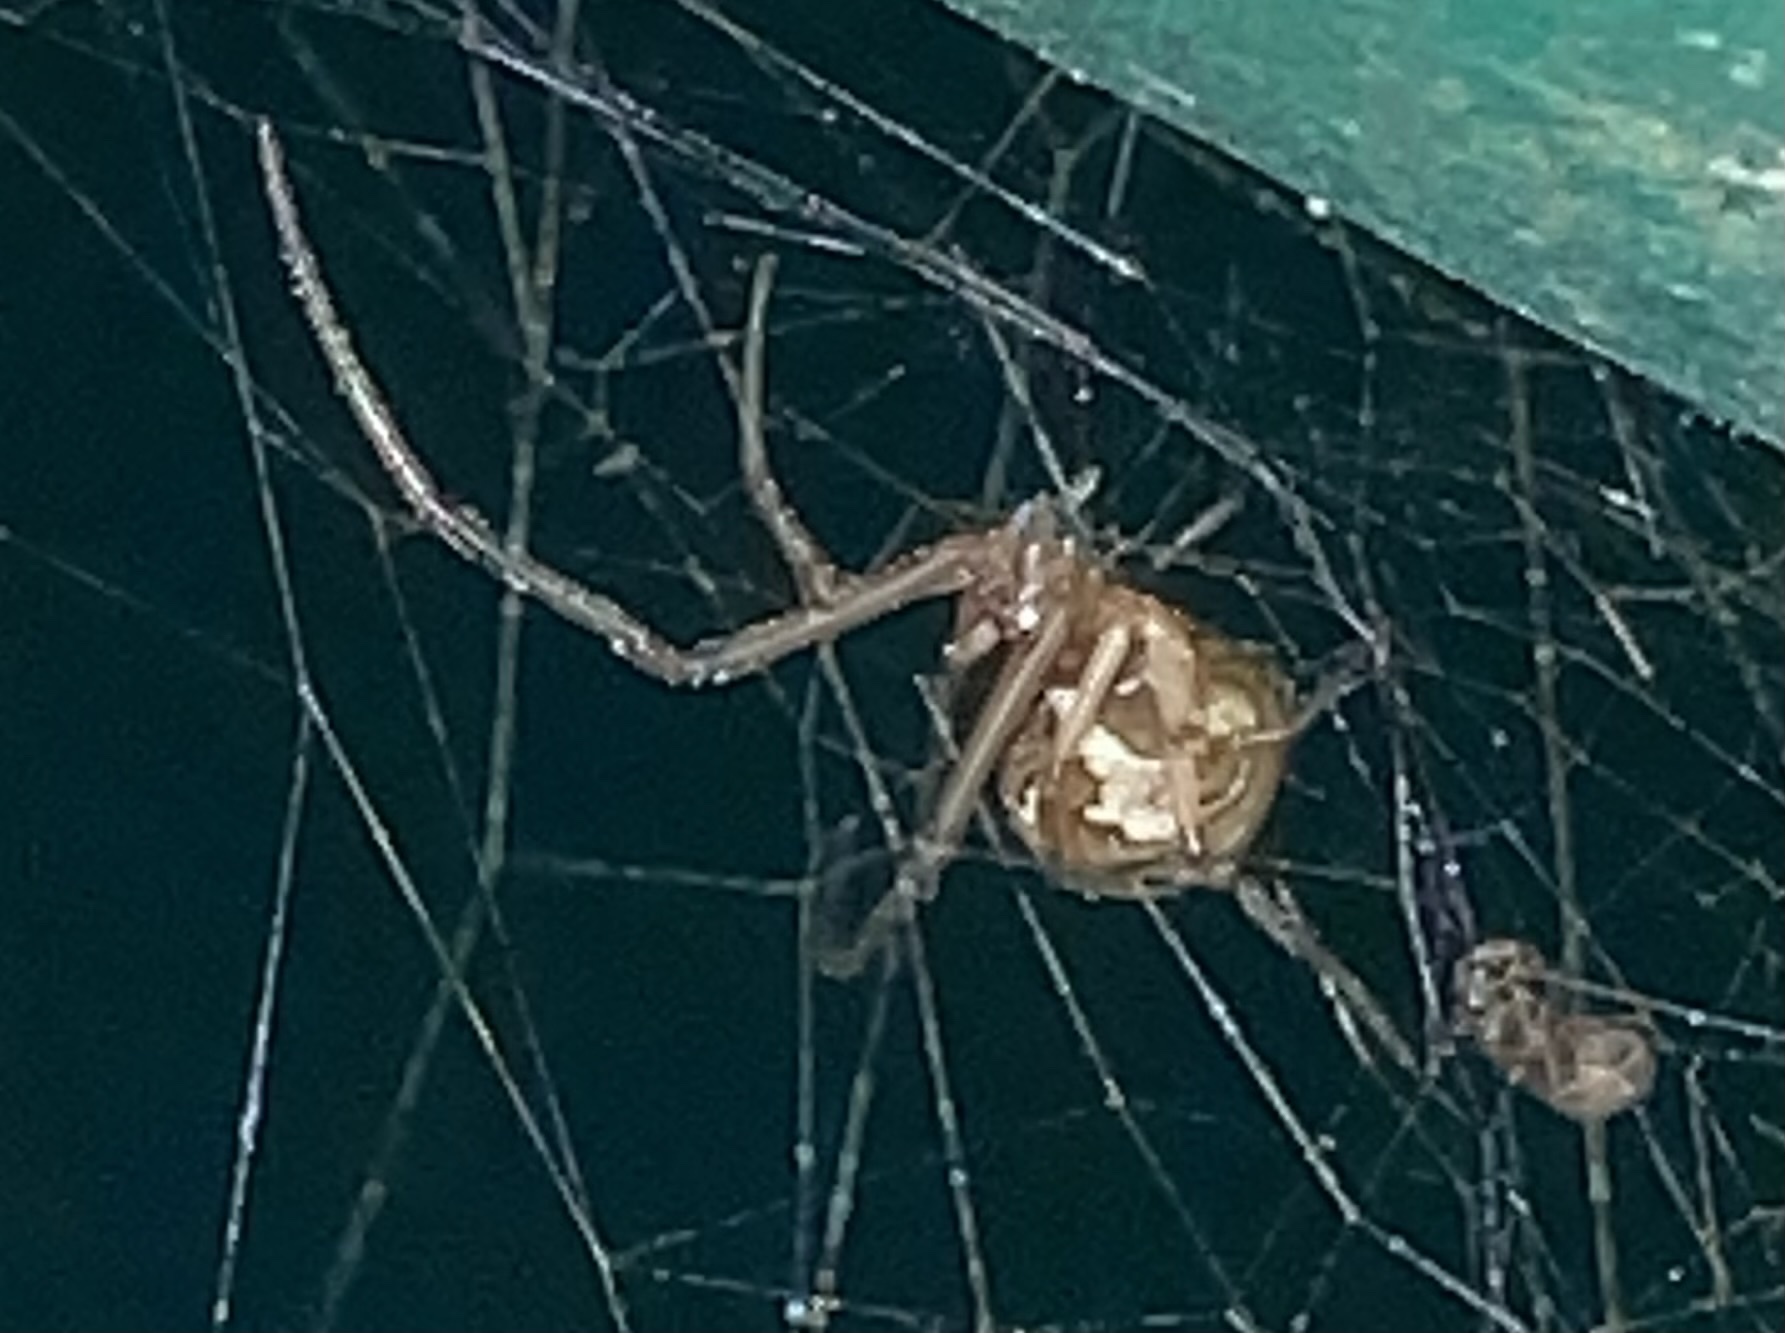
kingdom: Animalia
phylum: Arthropoda
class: Arachnida
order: Araneae
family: Theridiidae
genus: Latrodectus
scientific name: Latrodectus geometricus
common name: Brown widow spider
